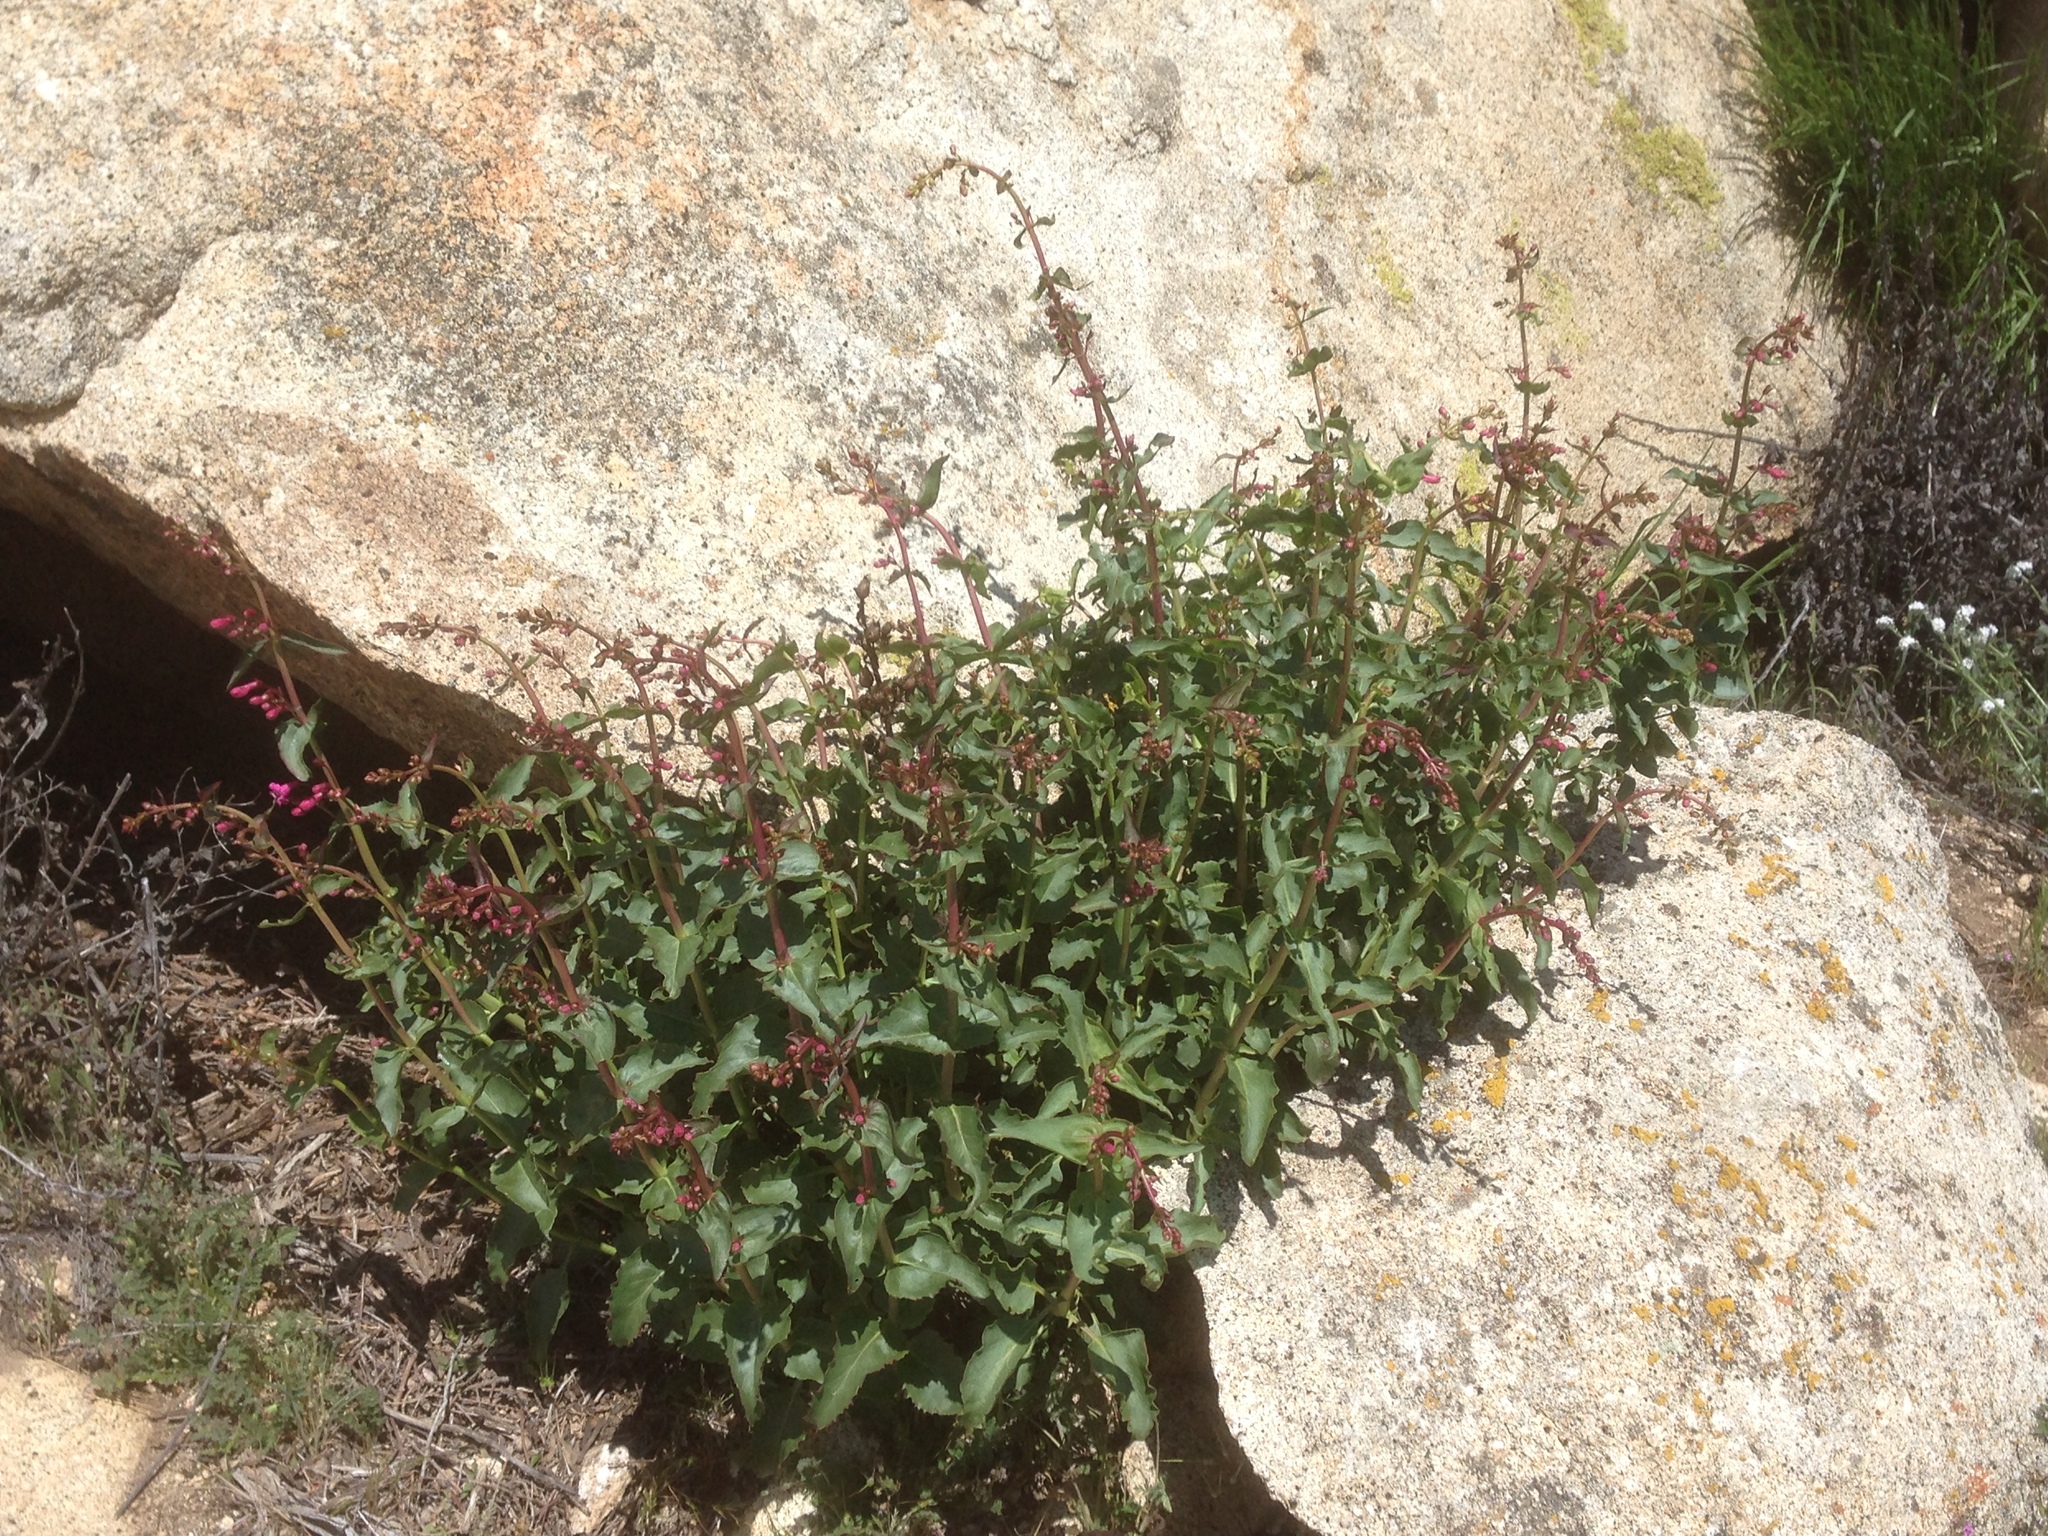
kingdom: Plantae
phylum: Tracheophyta
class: Magnoliopsida
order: Lamiales
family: Plantaginaceae
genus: Penstemon
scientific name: Penstemon clevelandii
